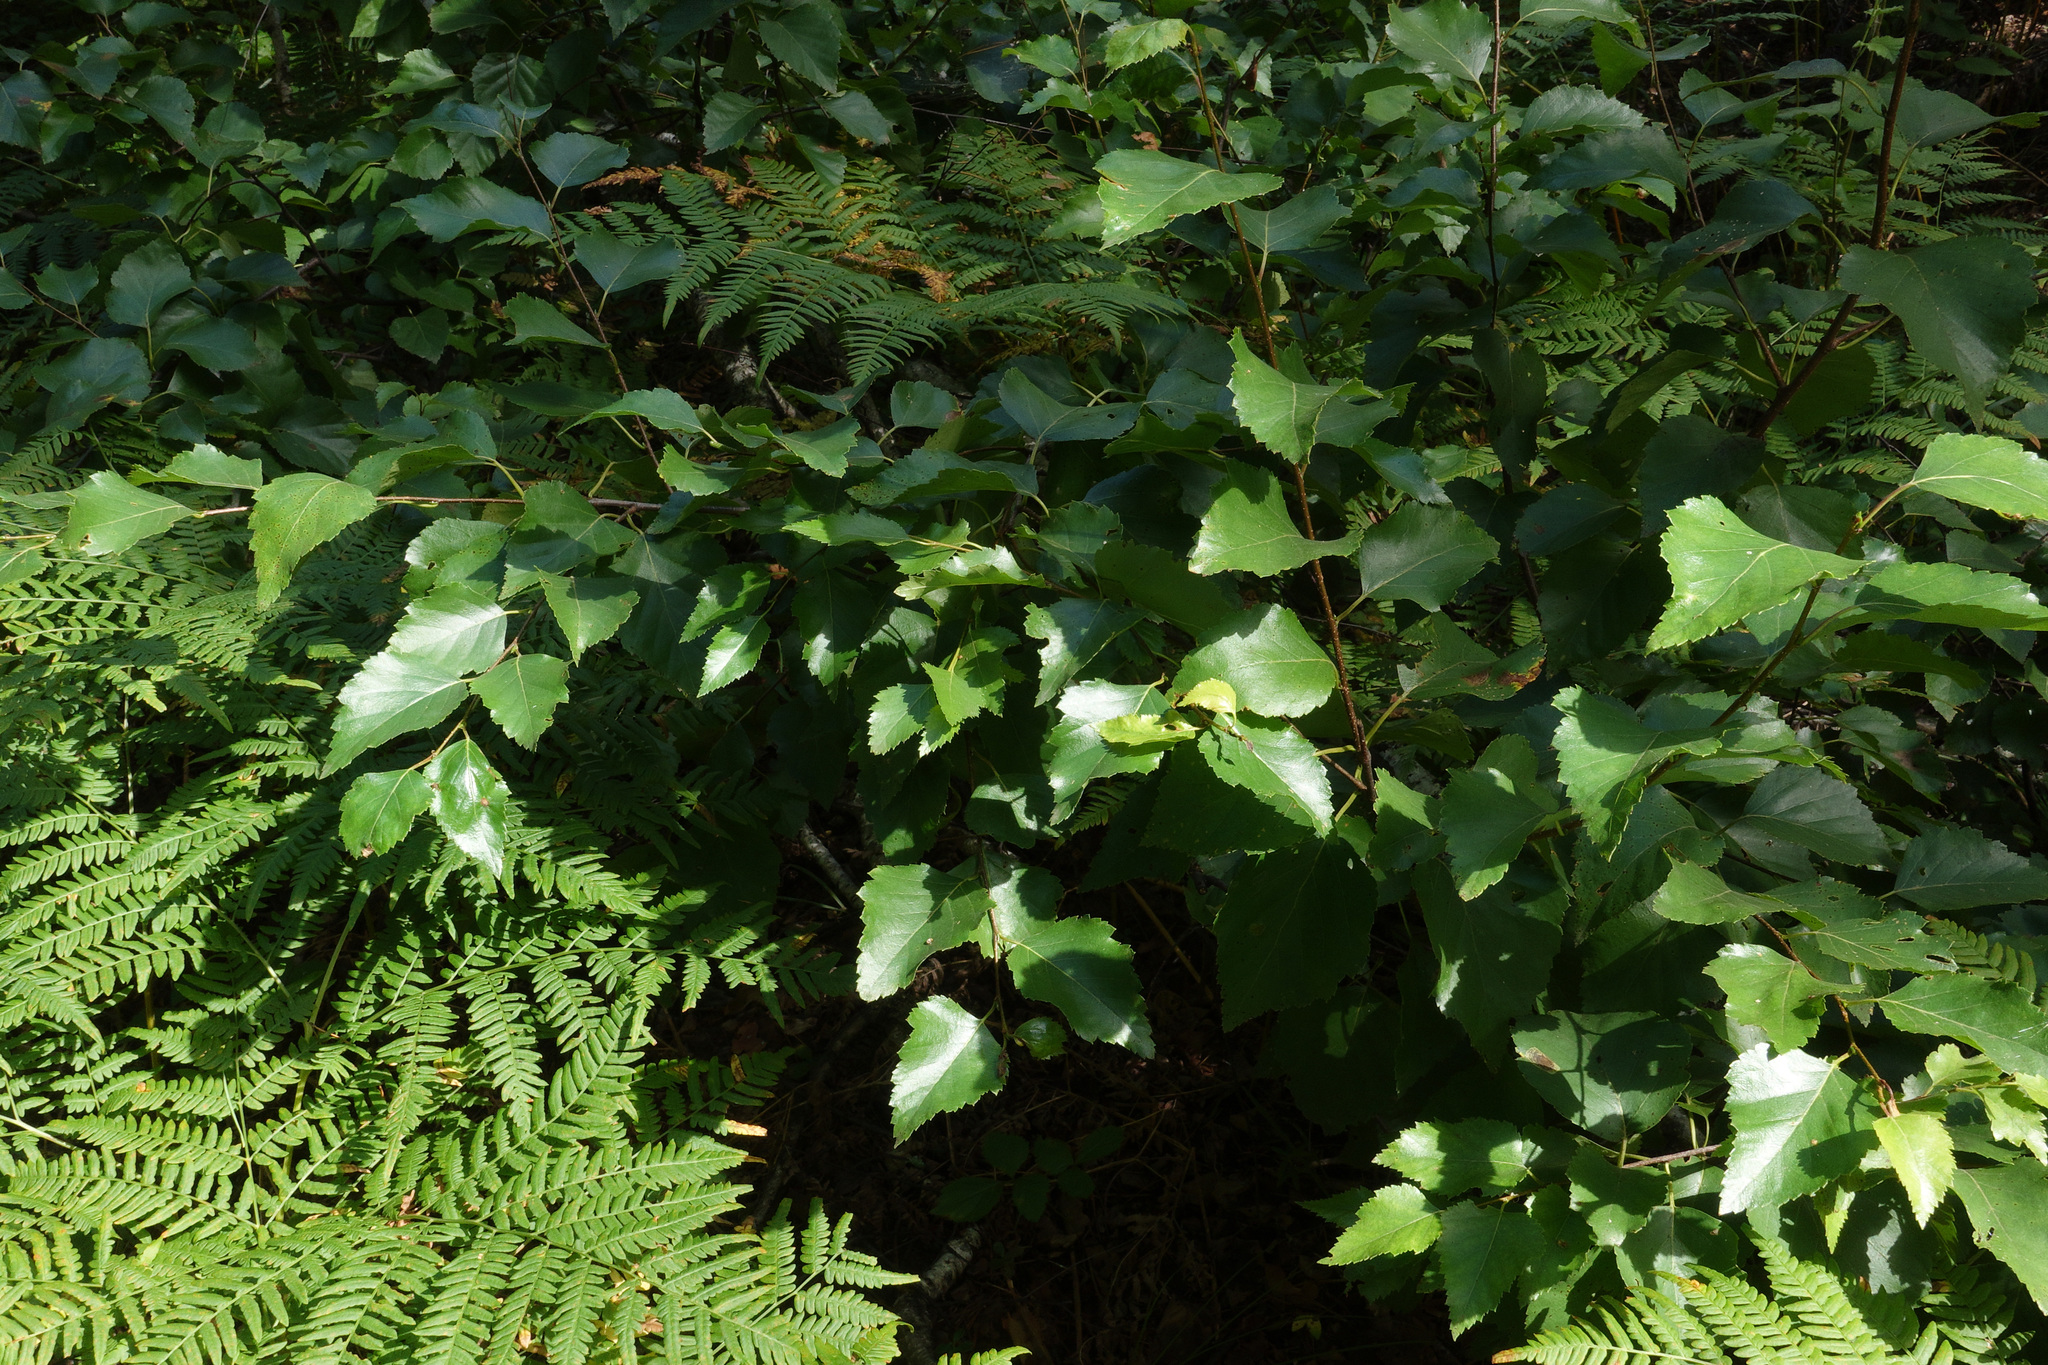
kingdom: Plantae
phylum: Tracheophyta
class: Magnoliopsida
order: Fagales
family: Betulaceae
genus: Betula
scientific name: Betula pubescens
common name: Downy birch
